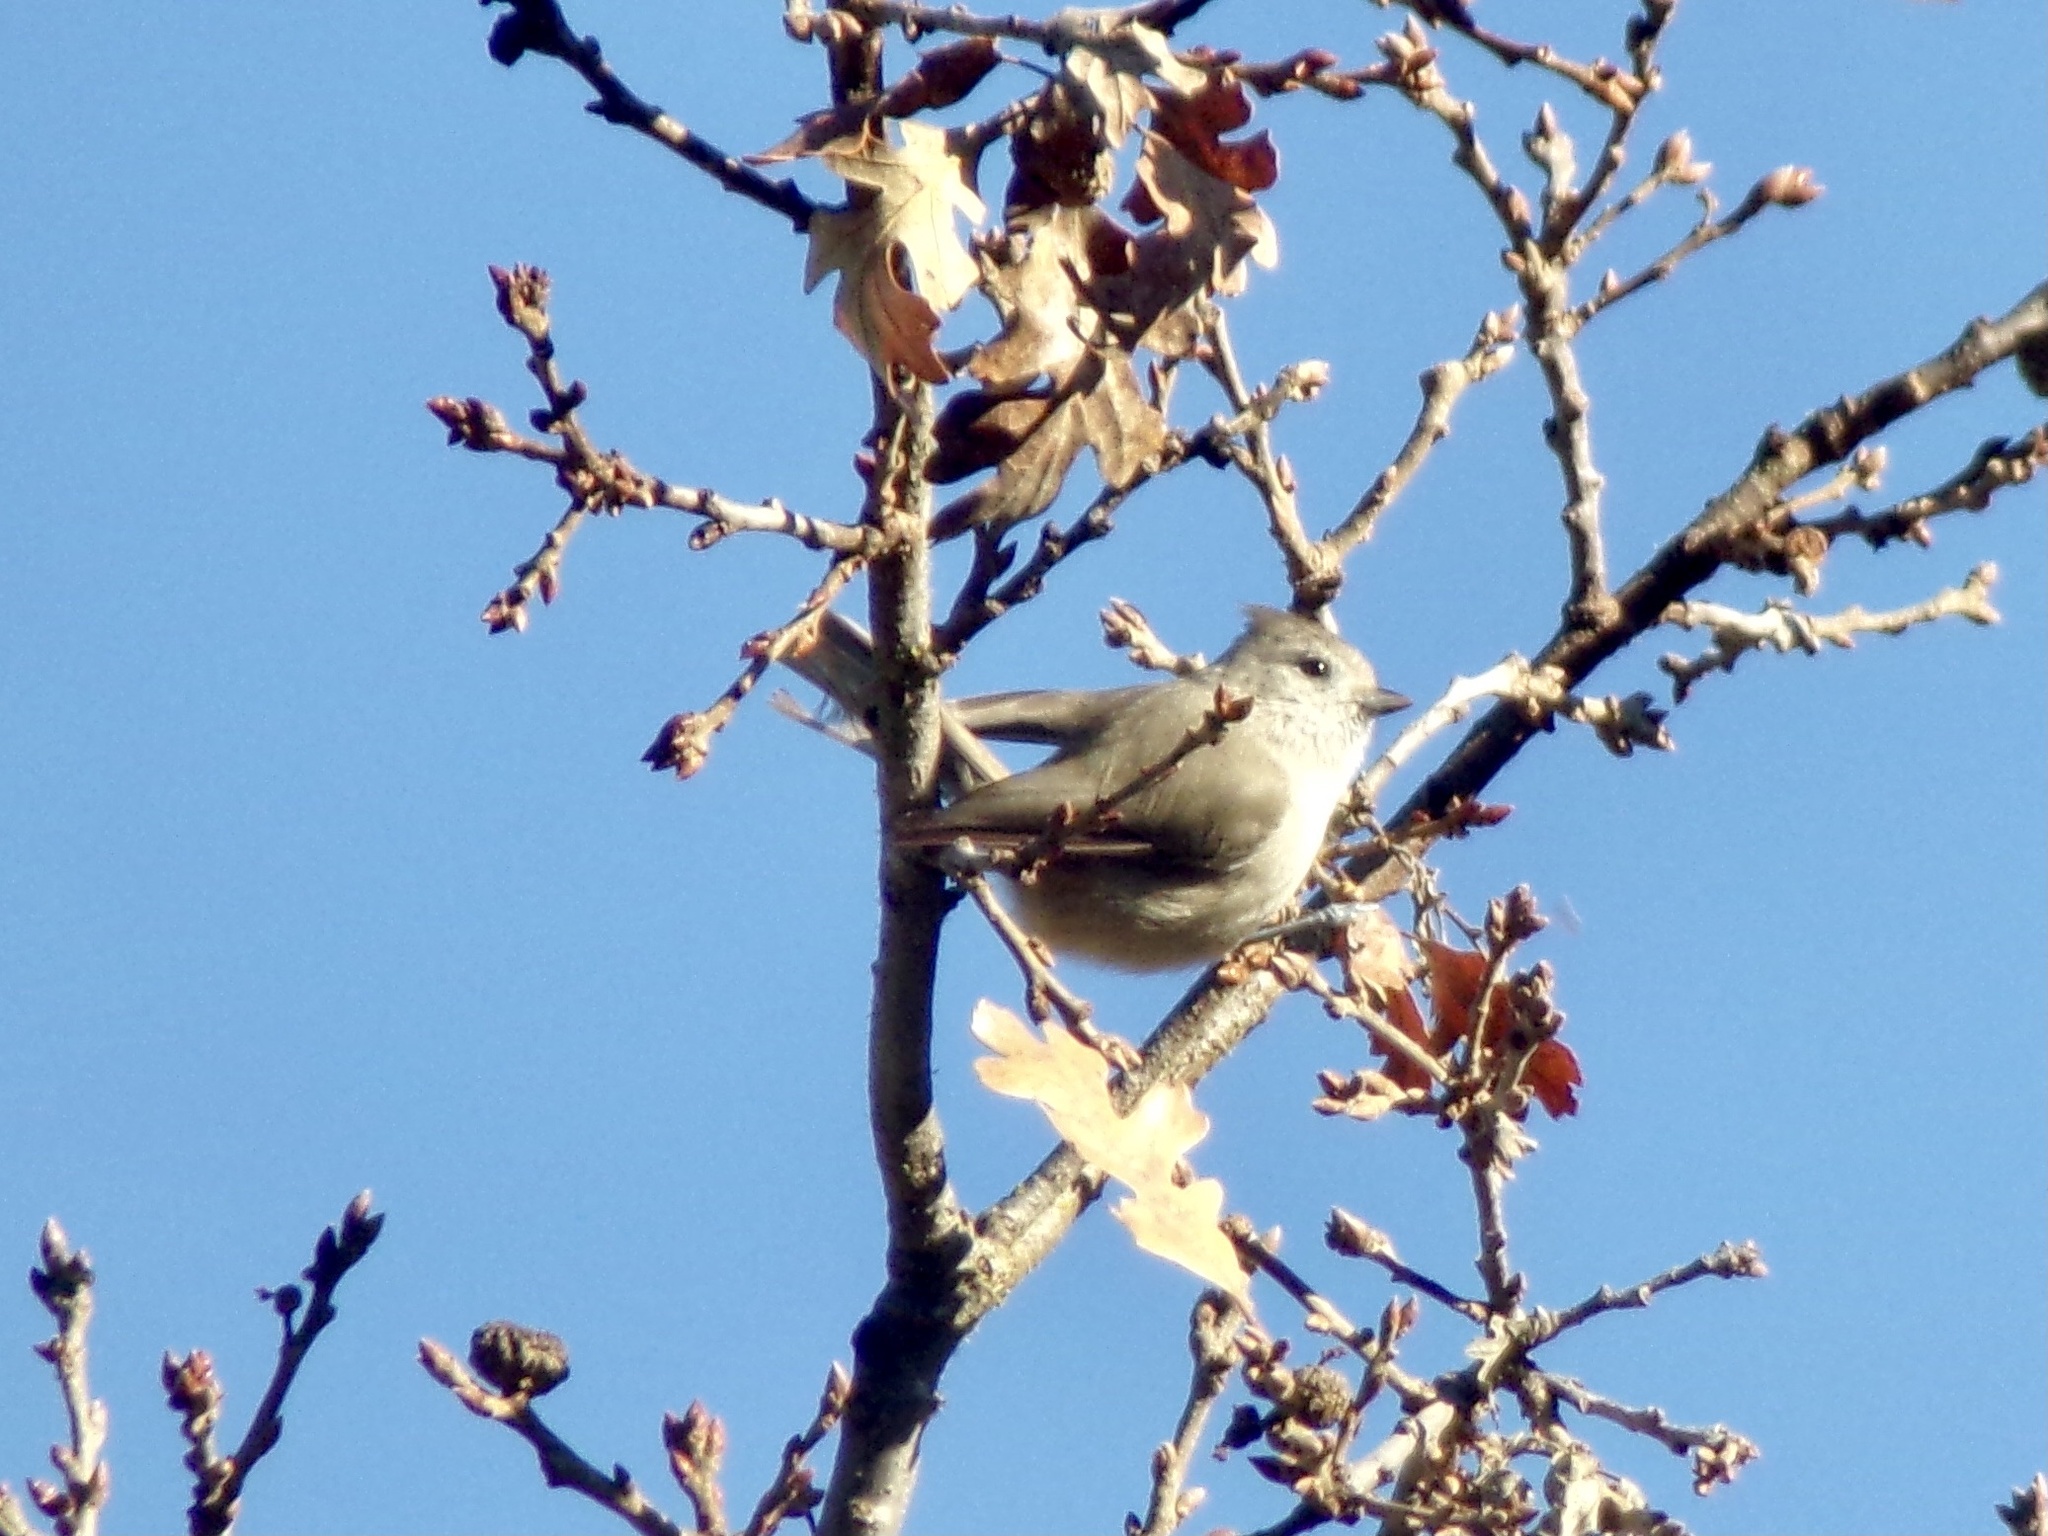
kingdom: Animalia
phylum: Chordata
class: Aves
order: Passeriformes
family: Paridae
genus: Baeolophus
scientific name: Baeolophus inornatus
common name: Oak titmouse
